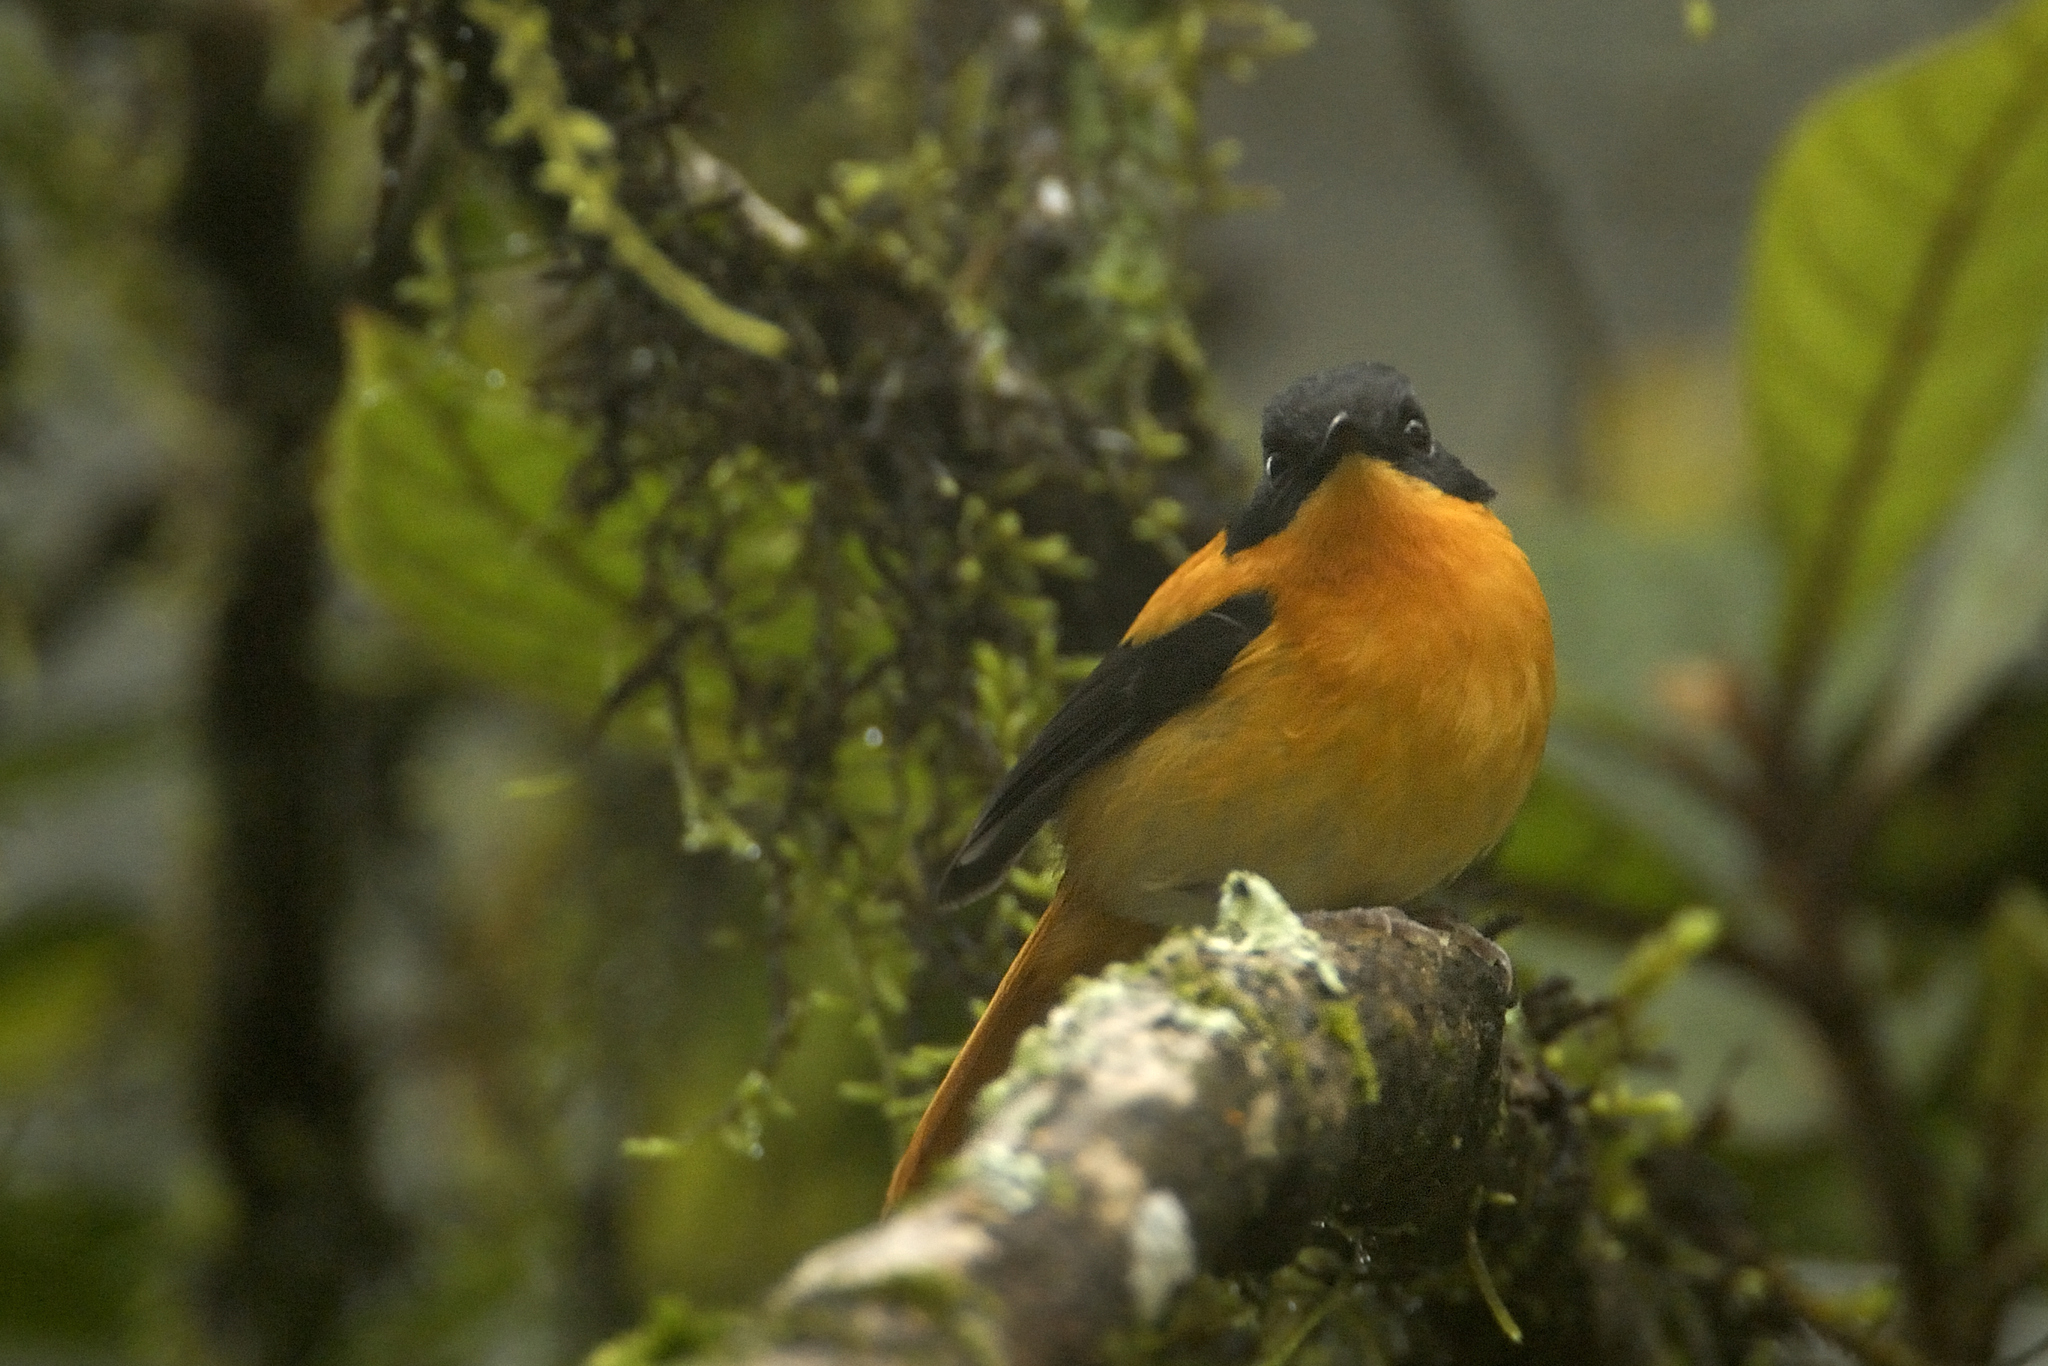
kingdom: Animalia
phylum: Chordata
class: Aves
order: Passeriformes
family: Muscicapidae
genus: Ficedula
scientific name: Ficedula nigrorufa
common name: Black-and-orange flycatcher
